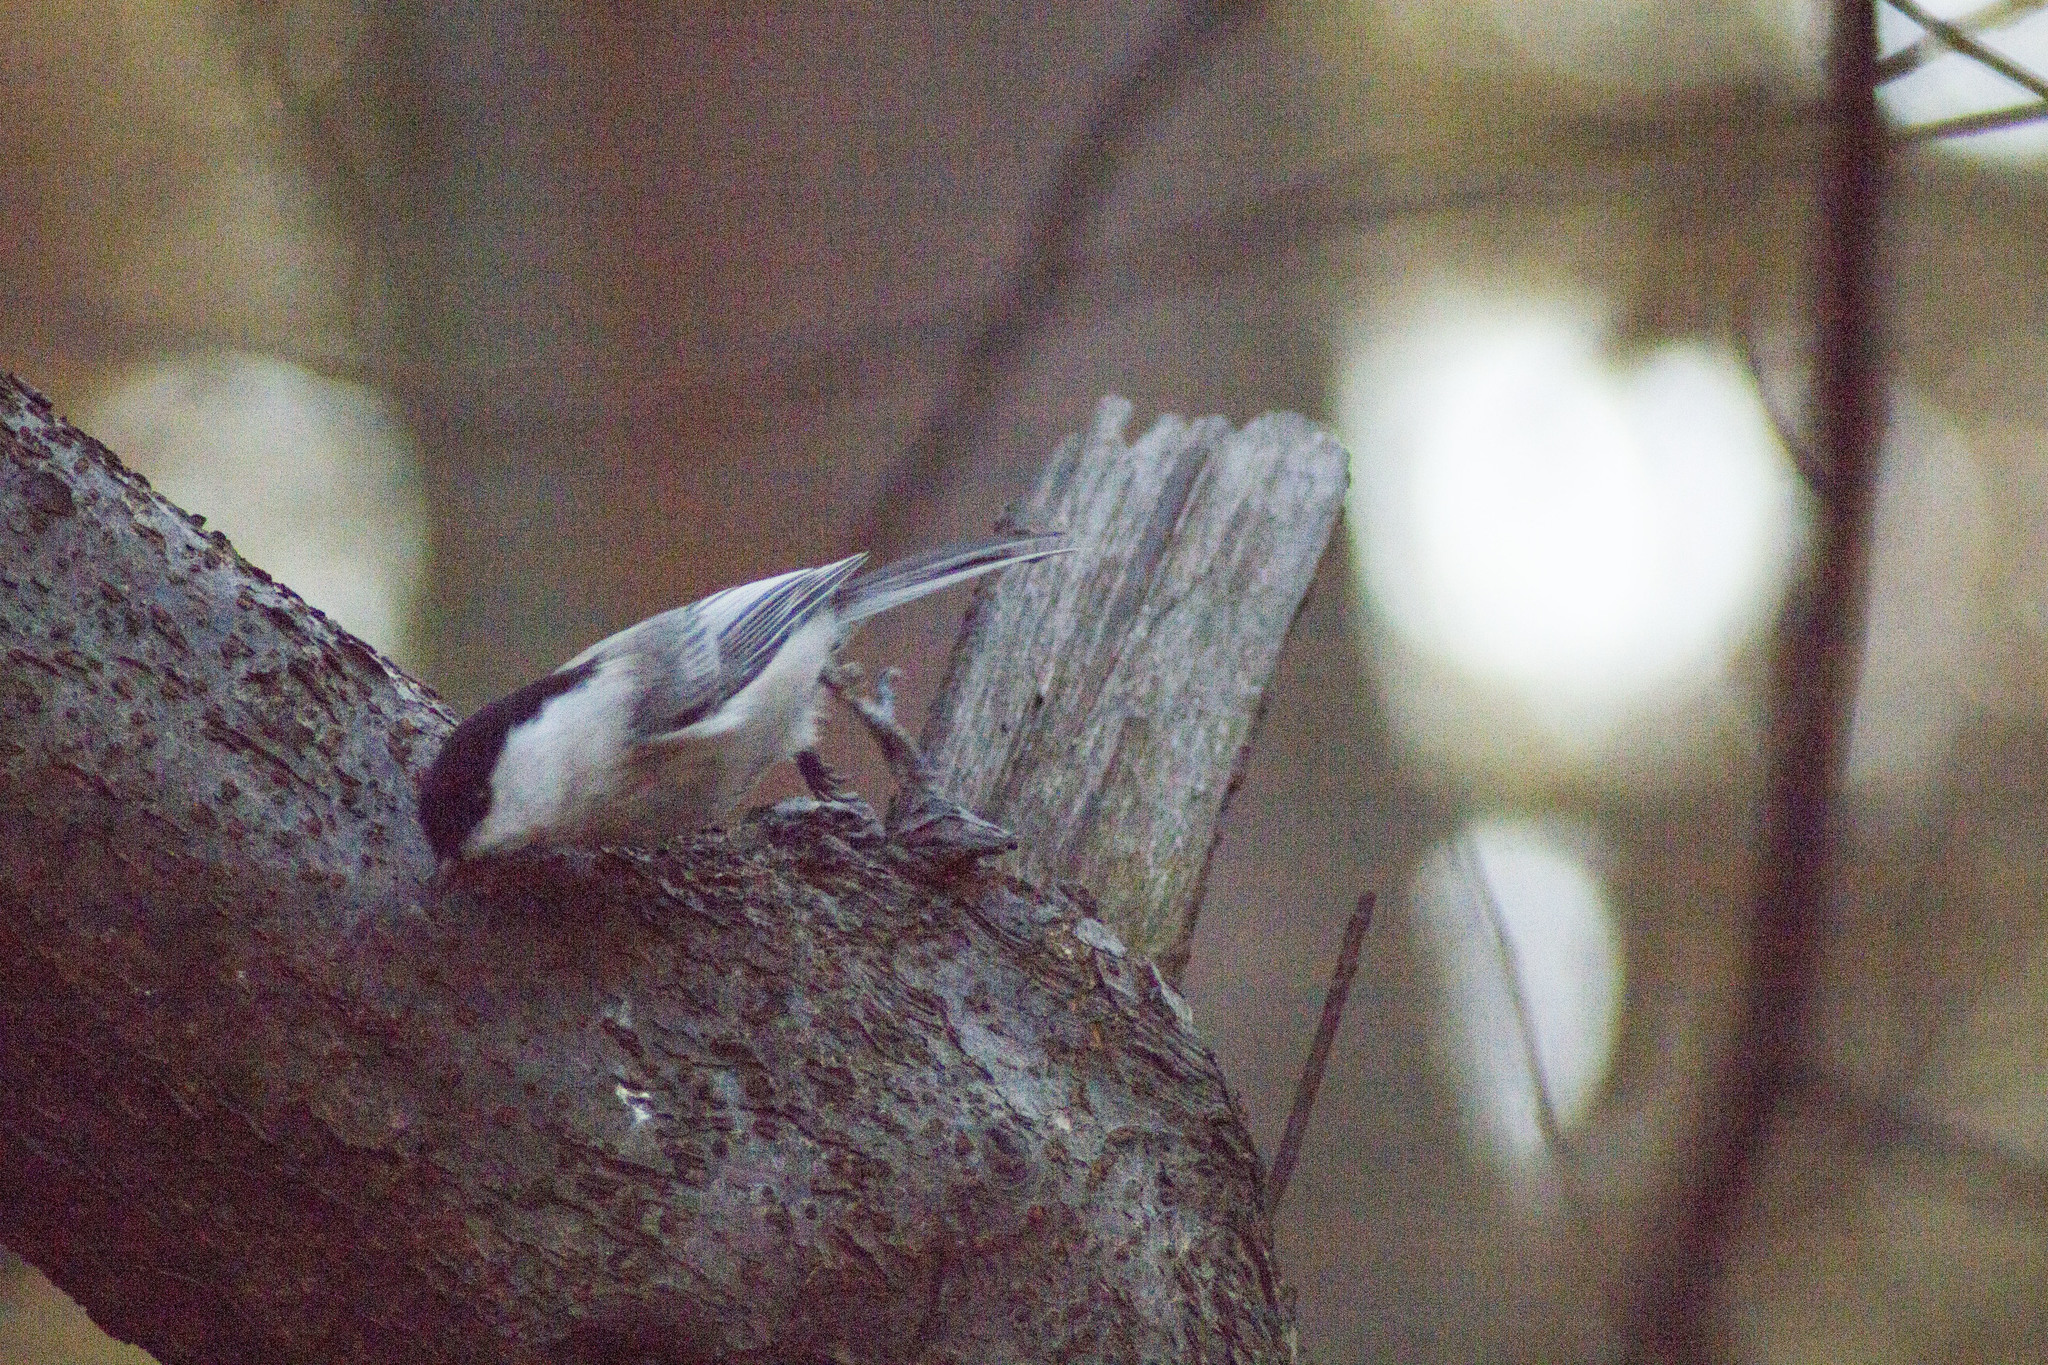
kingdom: Animalia
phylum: Chordata
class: Aves
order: Passeriformes
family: Paridae
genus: Poecile
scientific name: Poecile montanus
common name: Willow tit
